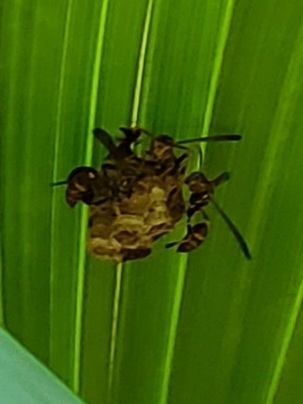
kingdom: Animalia
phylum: Arthropoda
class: Insecta
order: Hymenoptera
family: Vespidae
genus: Mischocyttarus
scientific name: Mischocyttarus mexicanus
